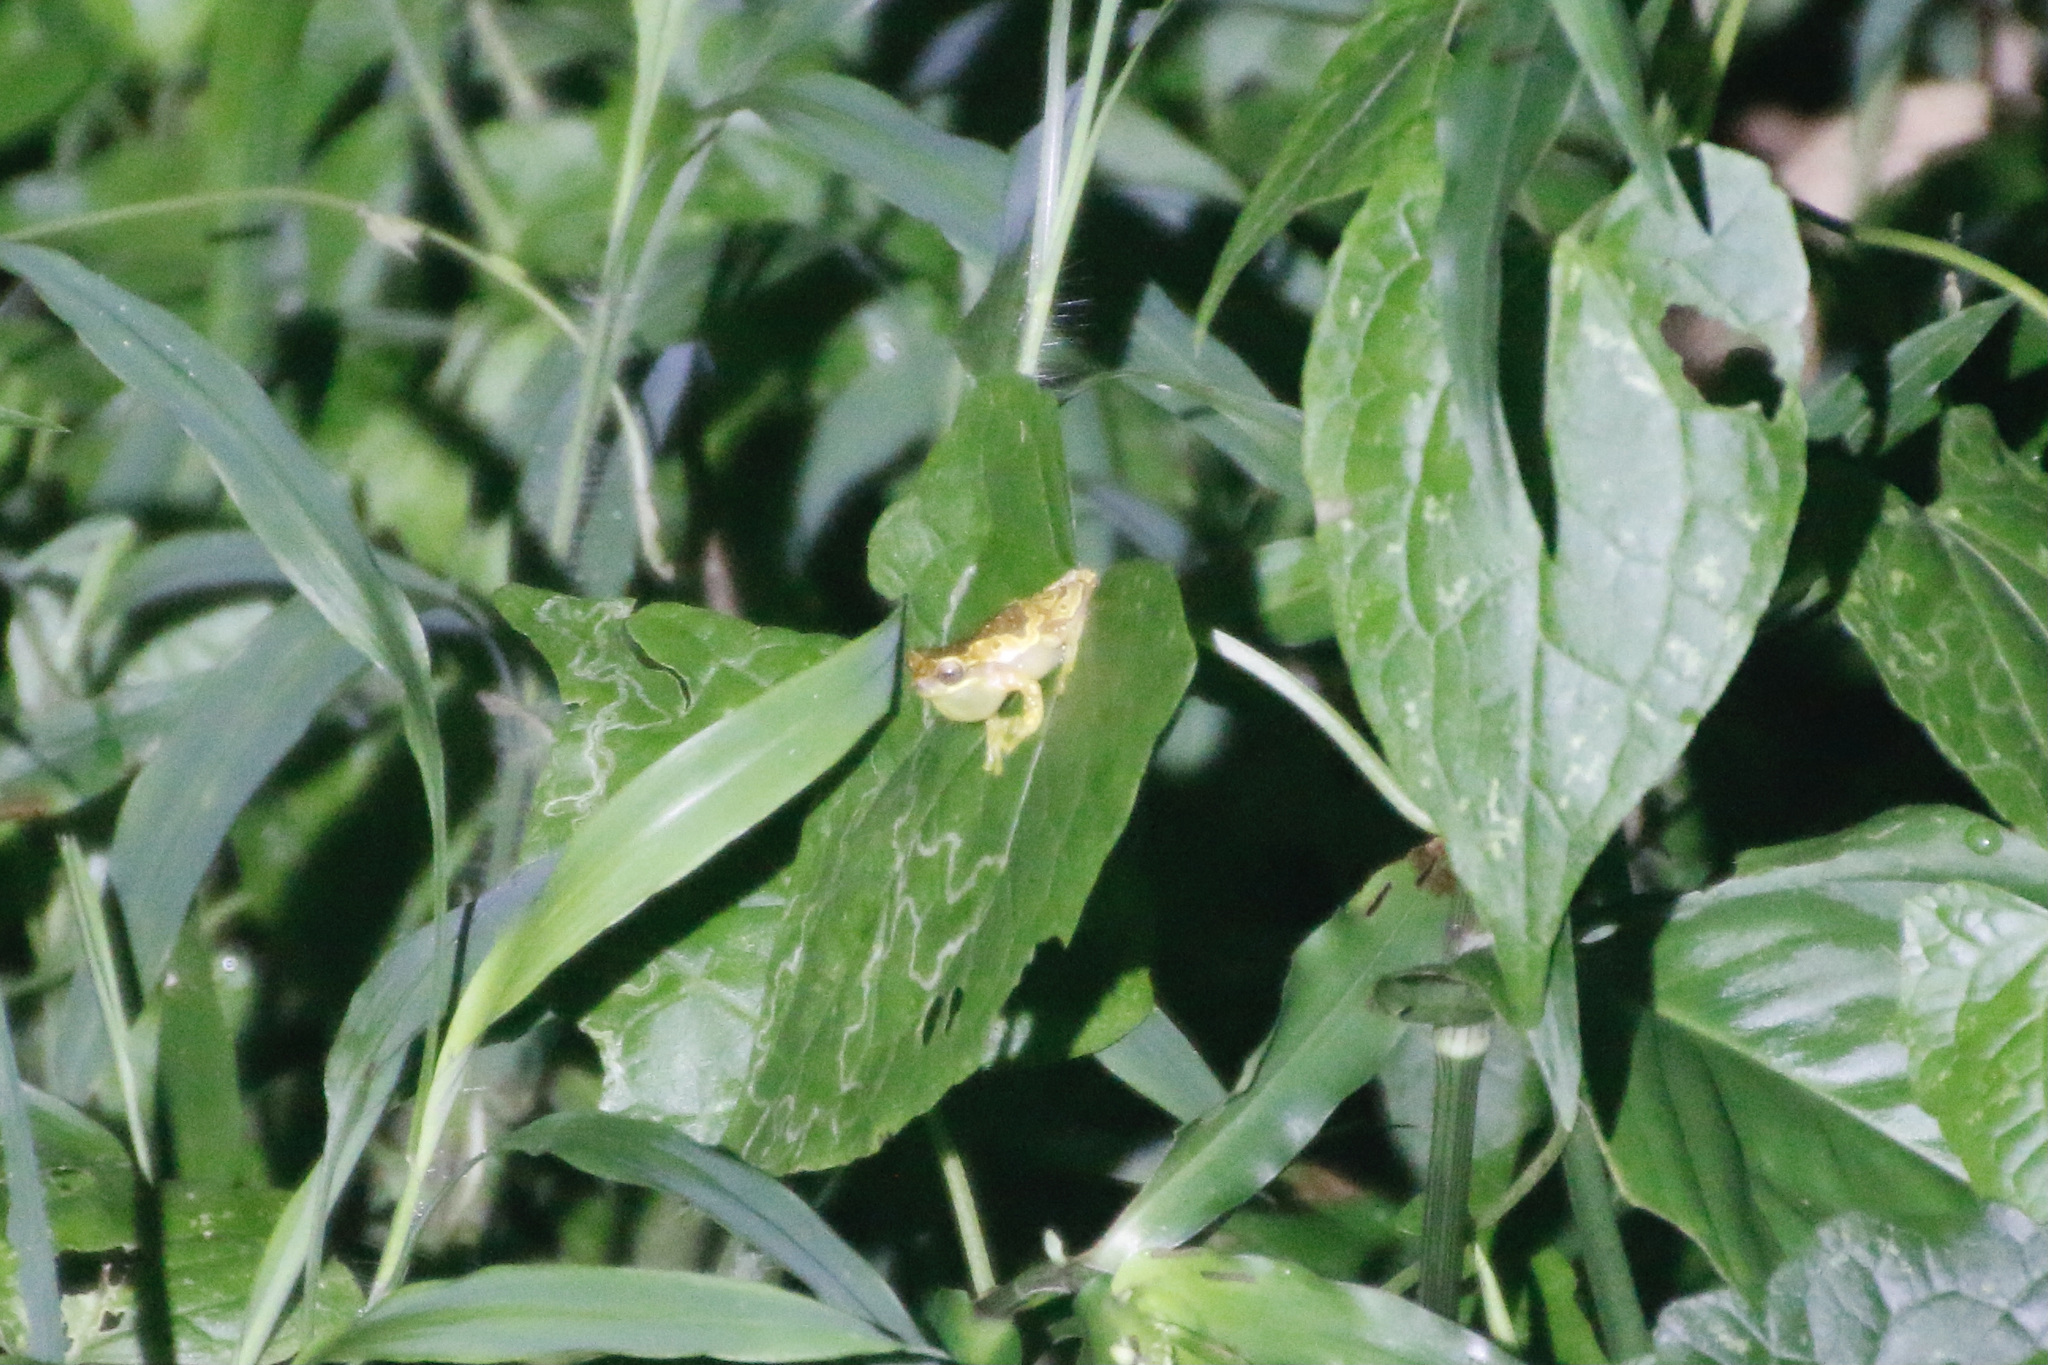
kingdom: Animalia
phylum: Chordata
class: Amphibia
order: Anura
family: Hylidae
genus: Dendropsophus
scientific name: Dendropsophus ebraccatus
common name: Hourglass treefrog
